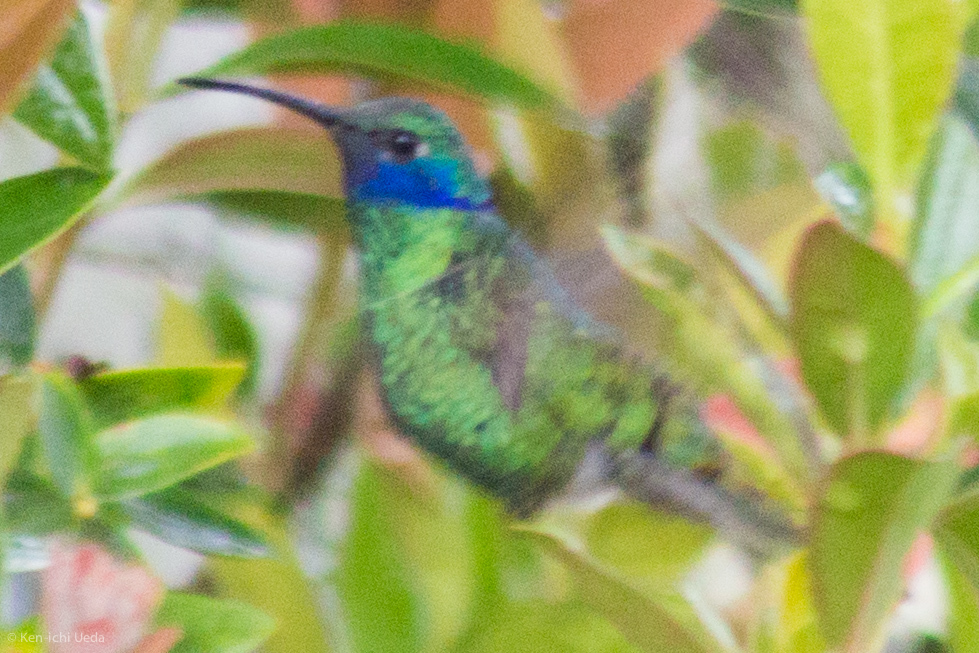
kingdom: Animalia
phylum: Chordata
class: Aves
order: Apodiformes
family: Trochilidae
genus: Colibri
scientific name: Colibri coruscans
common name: Sparkling violetear
